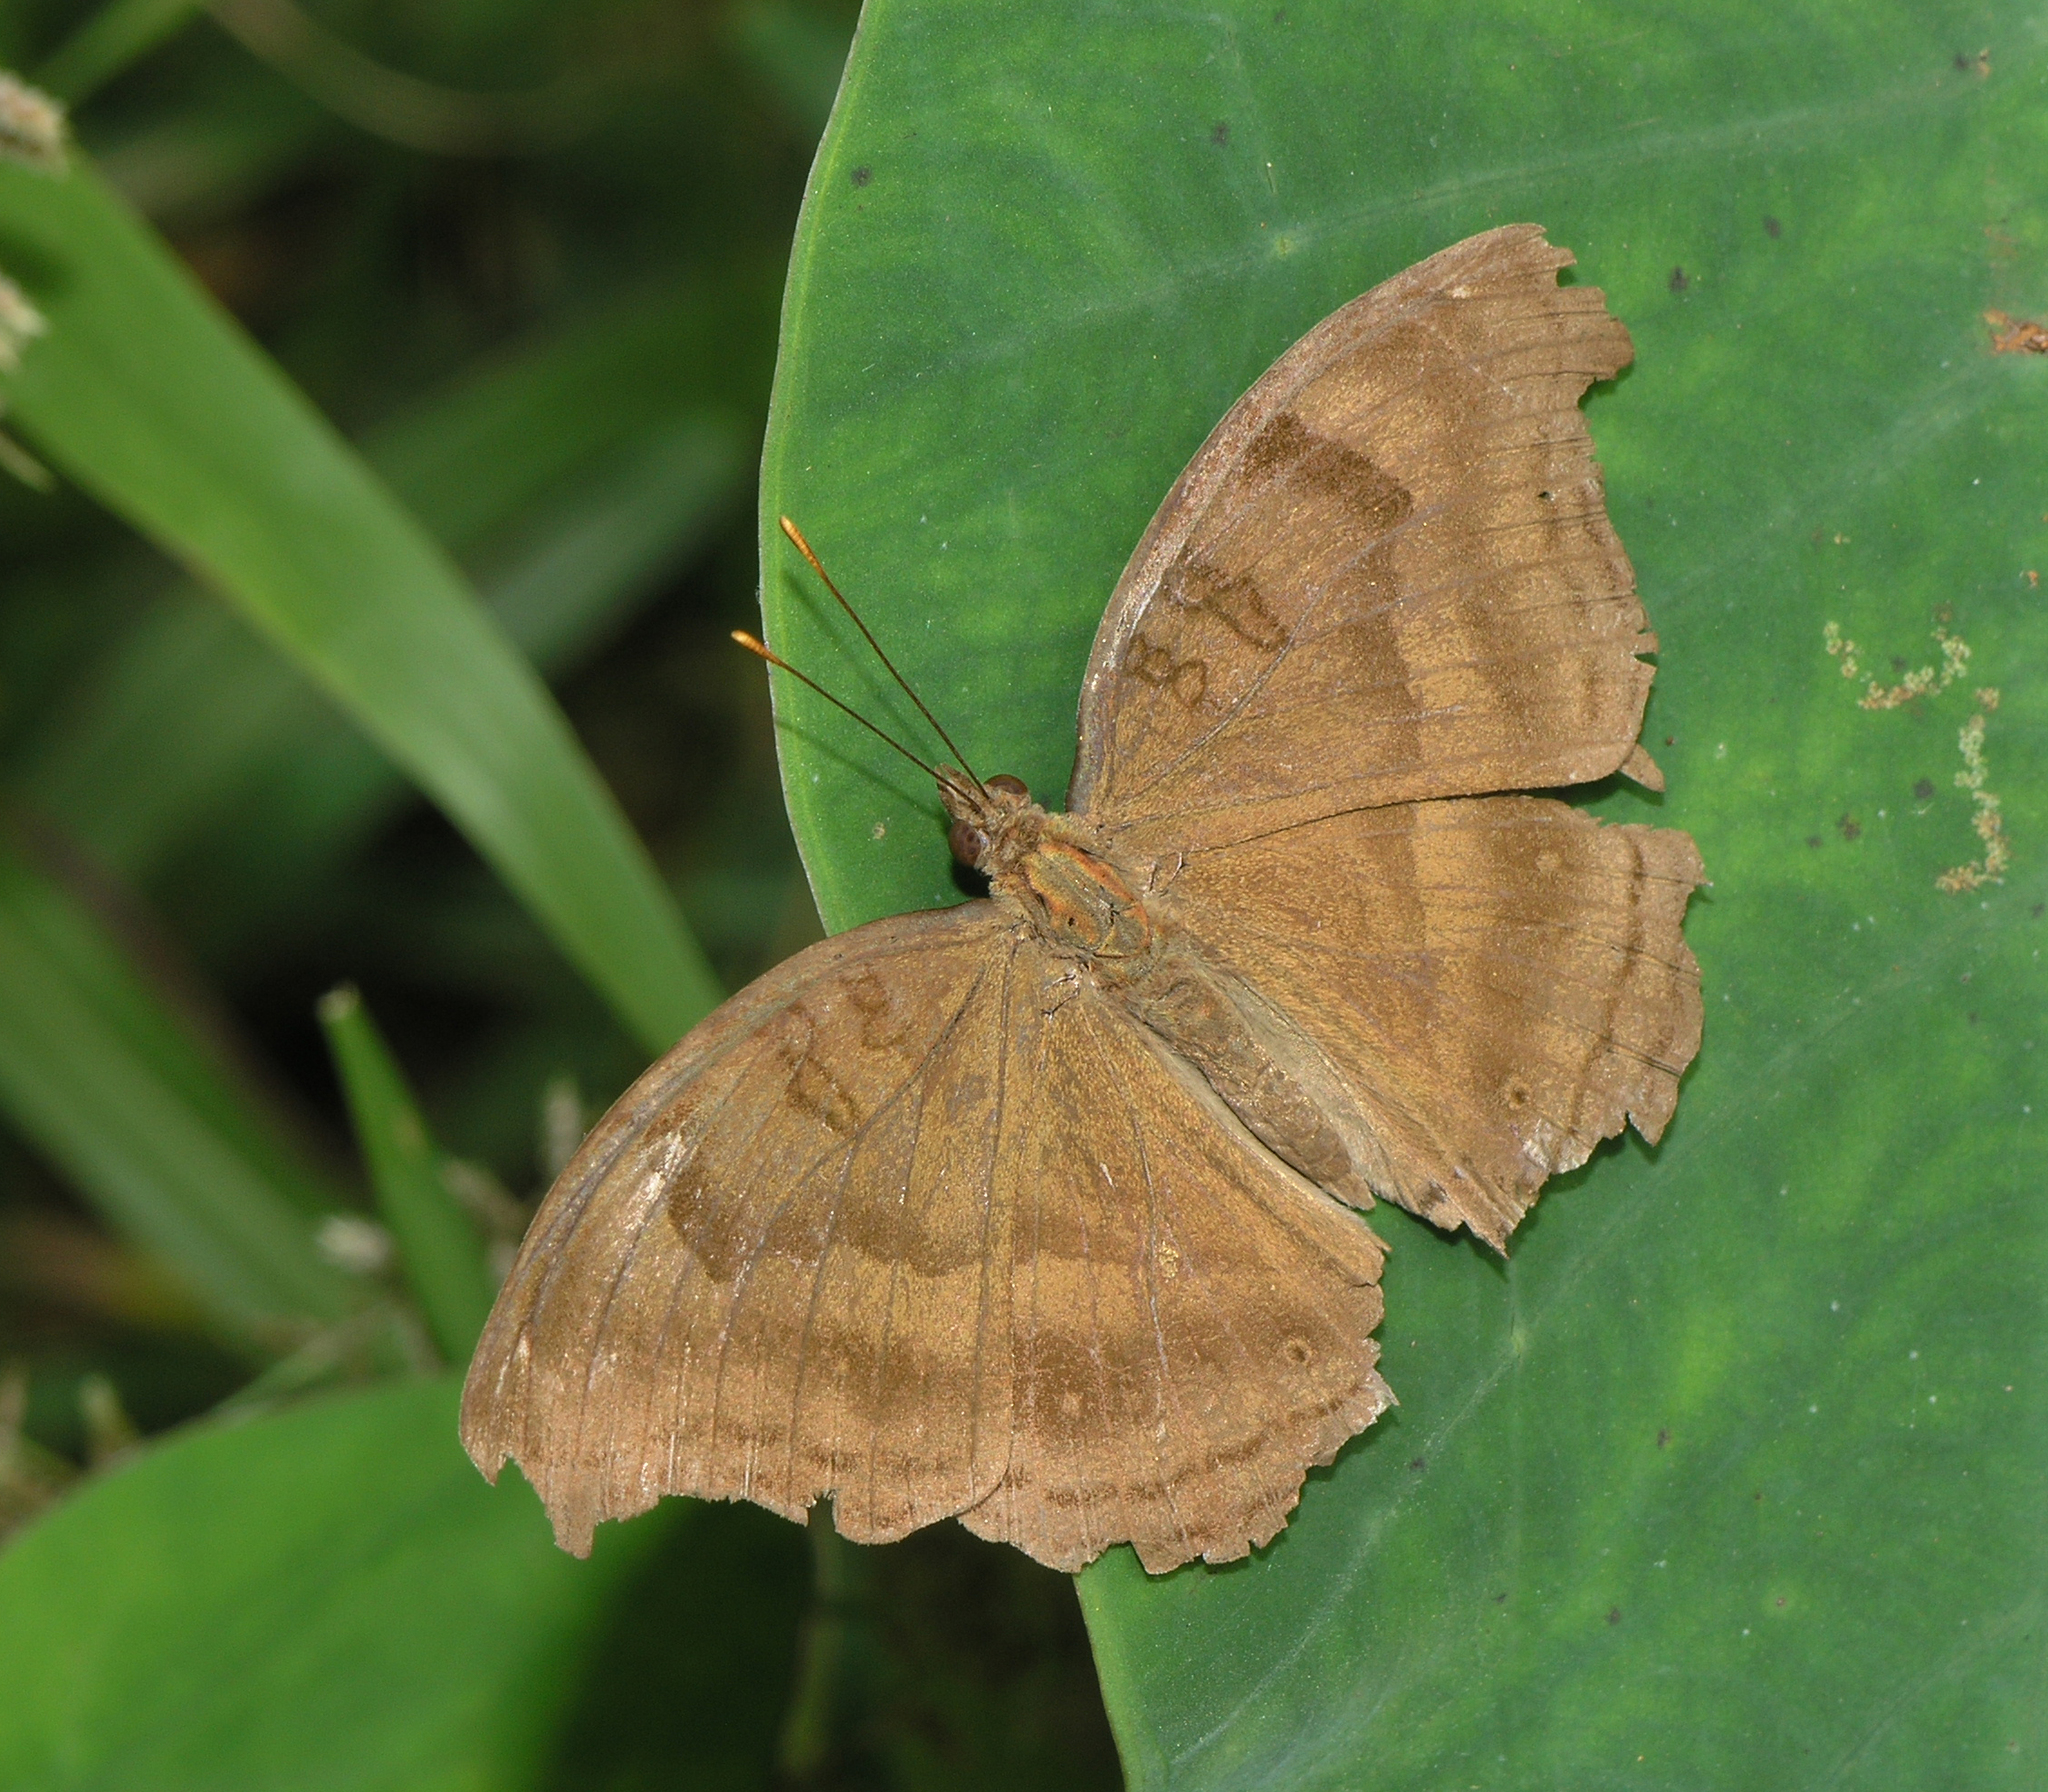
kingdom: Animalia
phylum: Arthropoda
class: Insecta
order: Lepidoptera
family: Nymphalidae
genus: Junonia
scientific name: Junonia iphita
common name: Chocolate pansy
